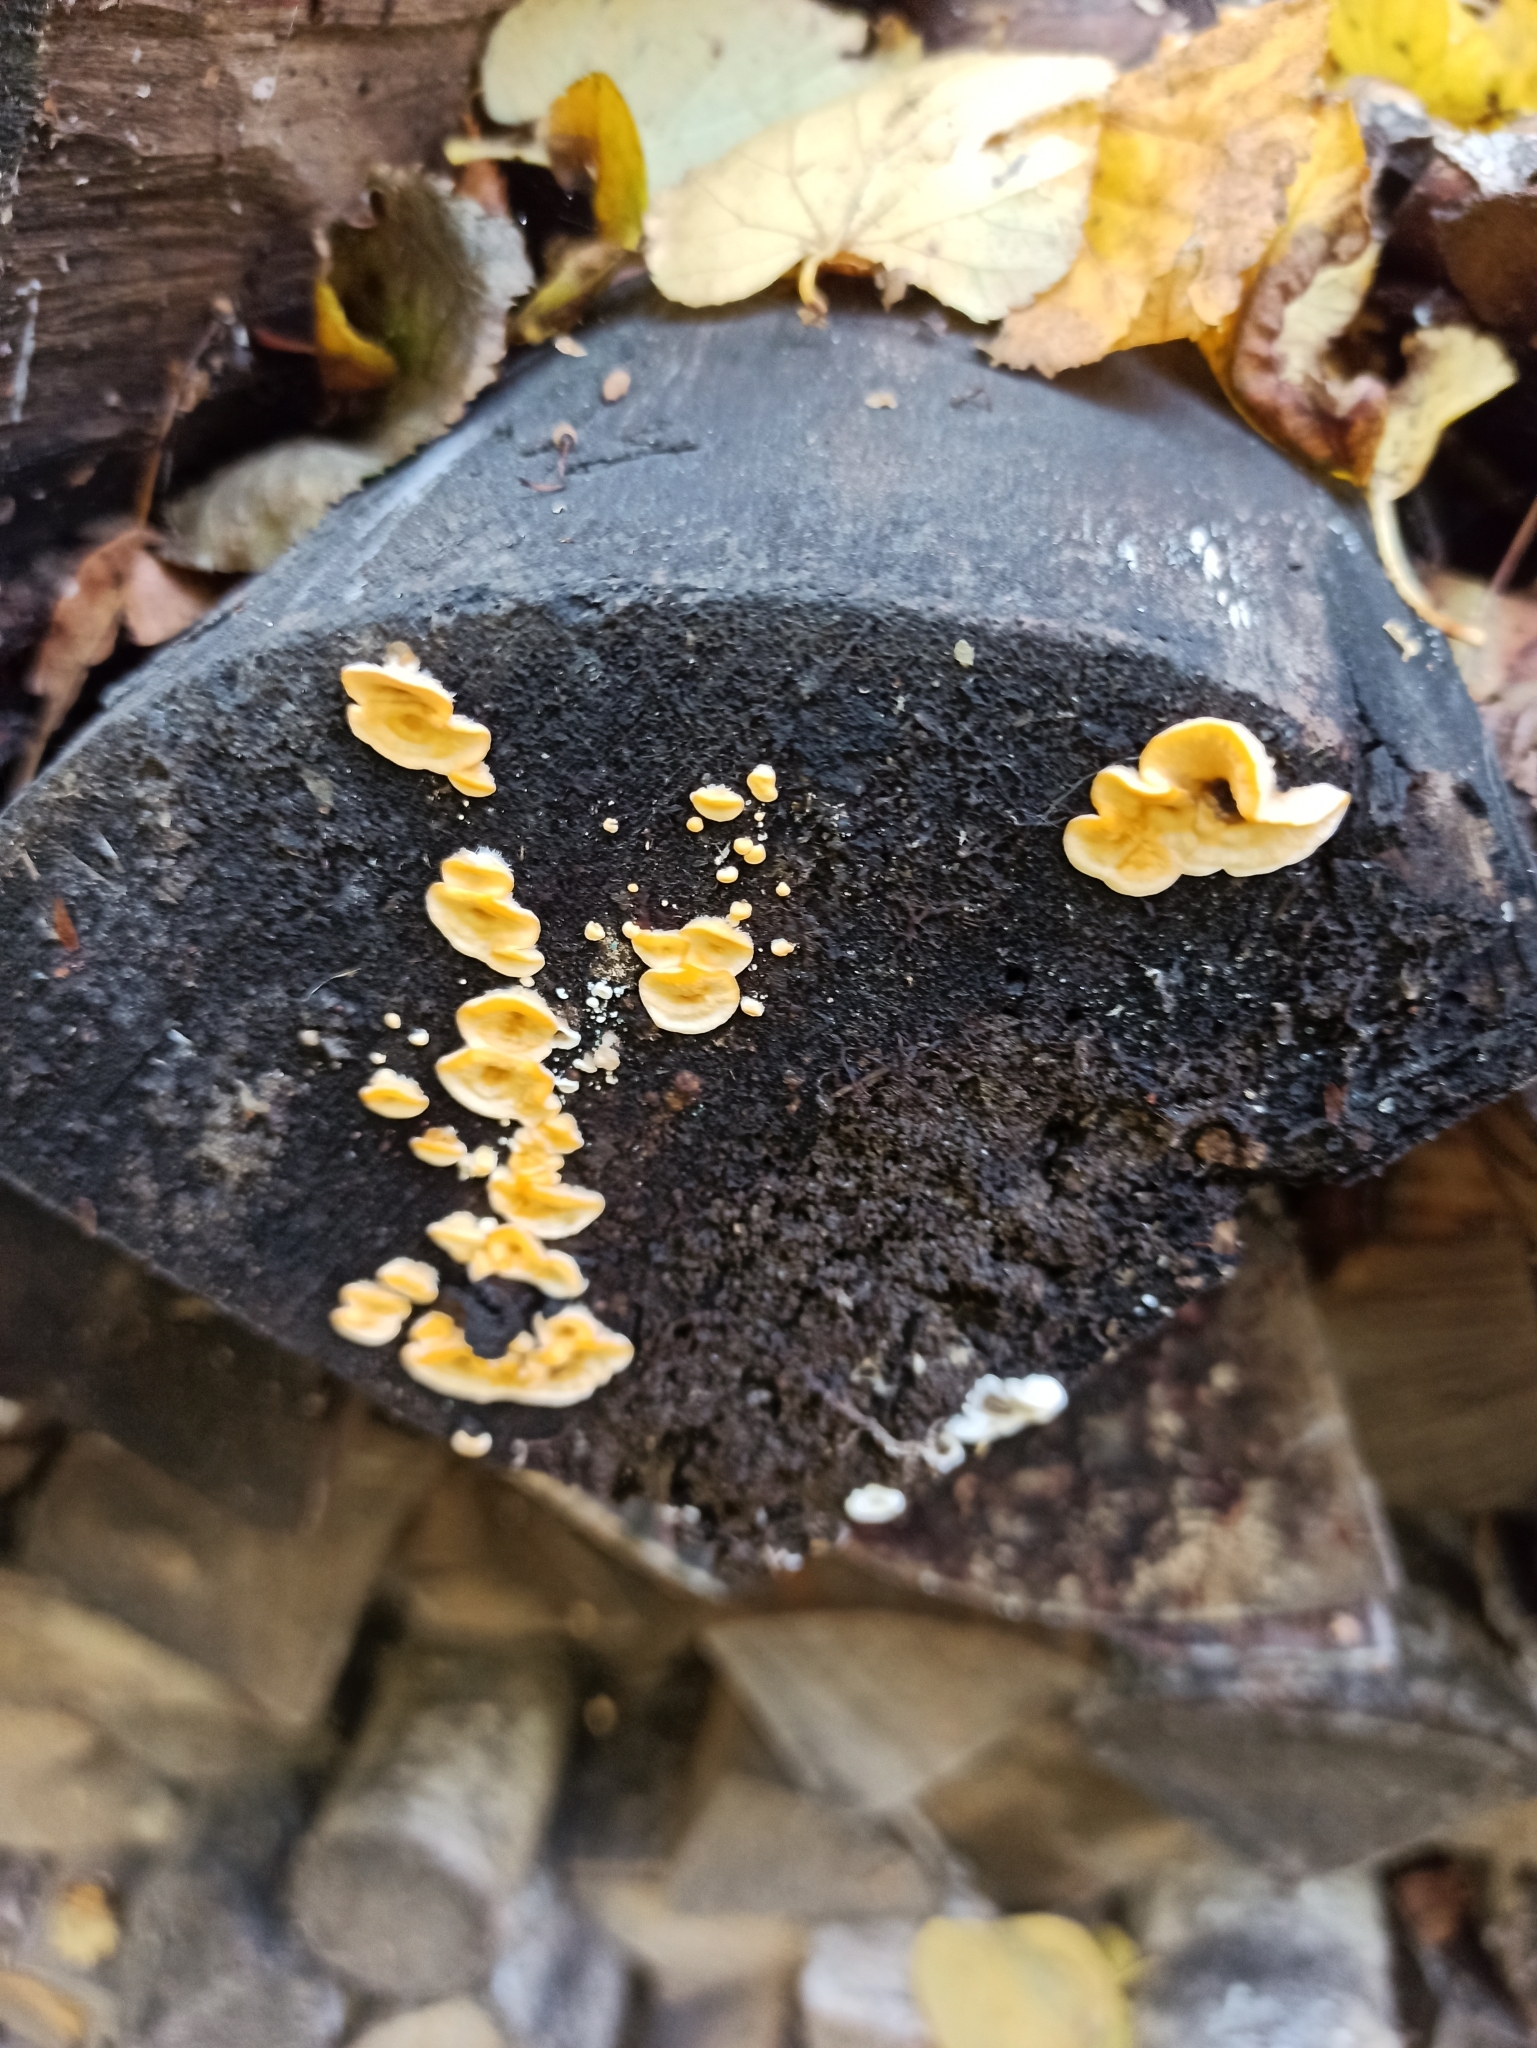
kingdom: Fungi
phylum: Basidiomycota
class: Agaricomycetes
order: Russulales
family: Stereaceae
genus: Stereum
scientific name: Stereum hirsutum
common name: Hairy curtain crust
